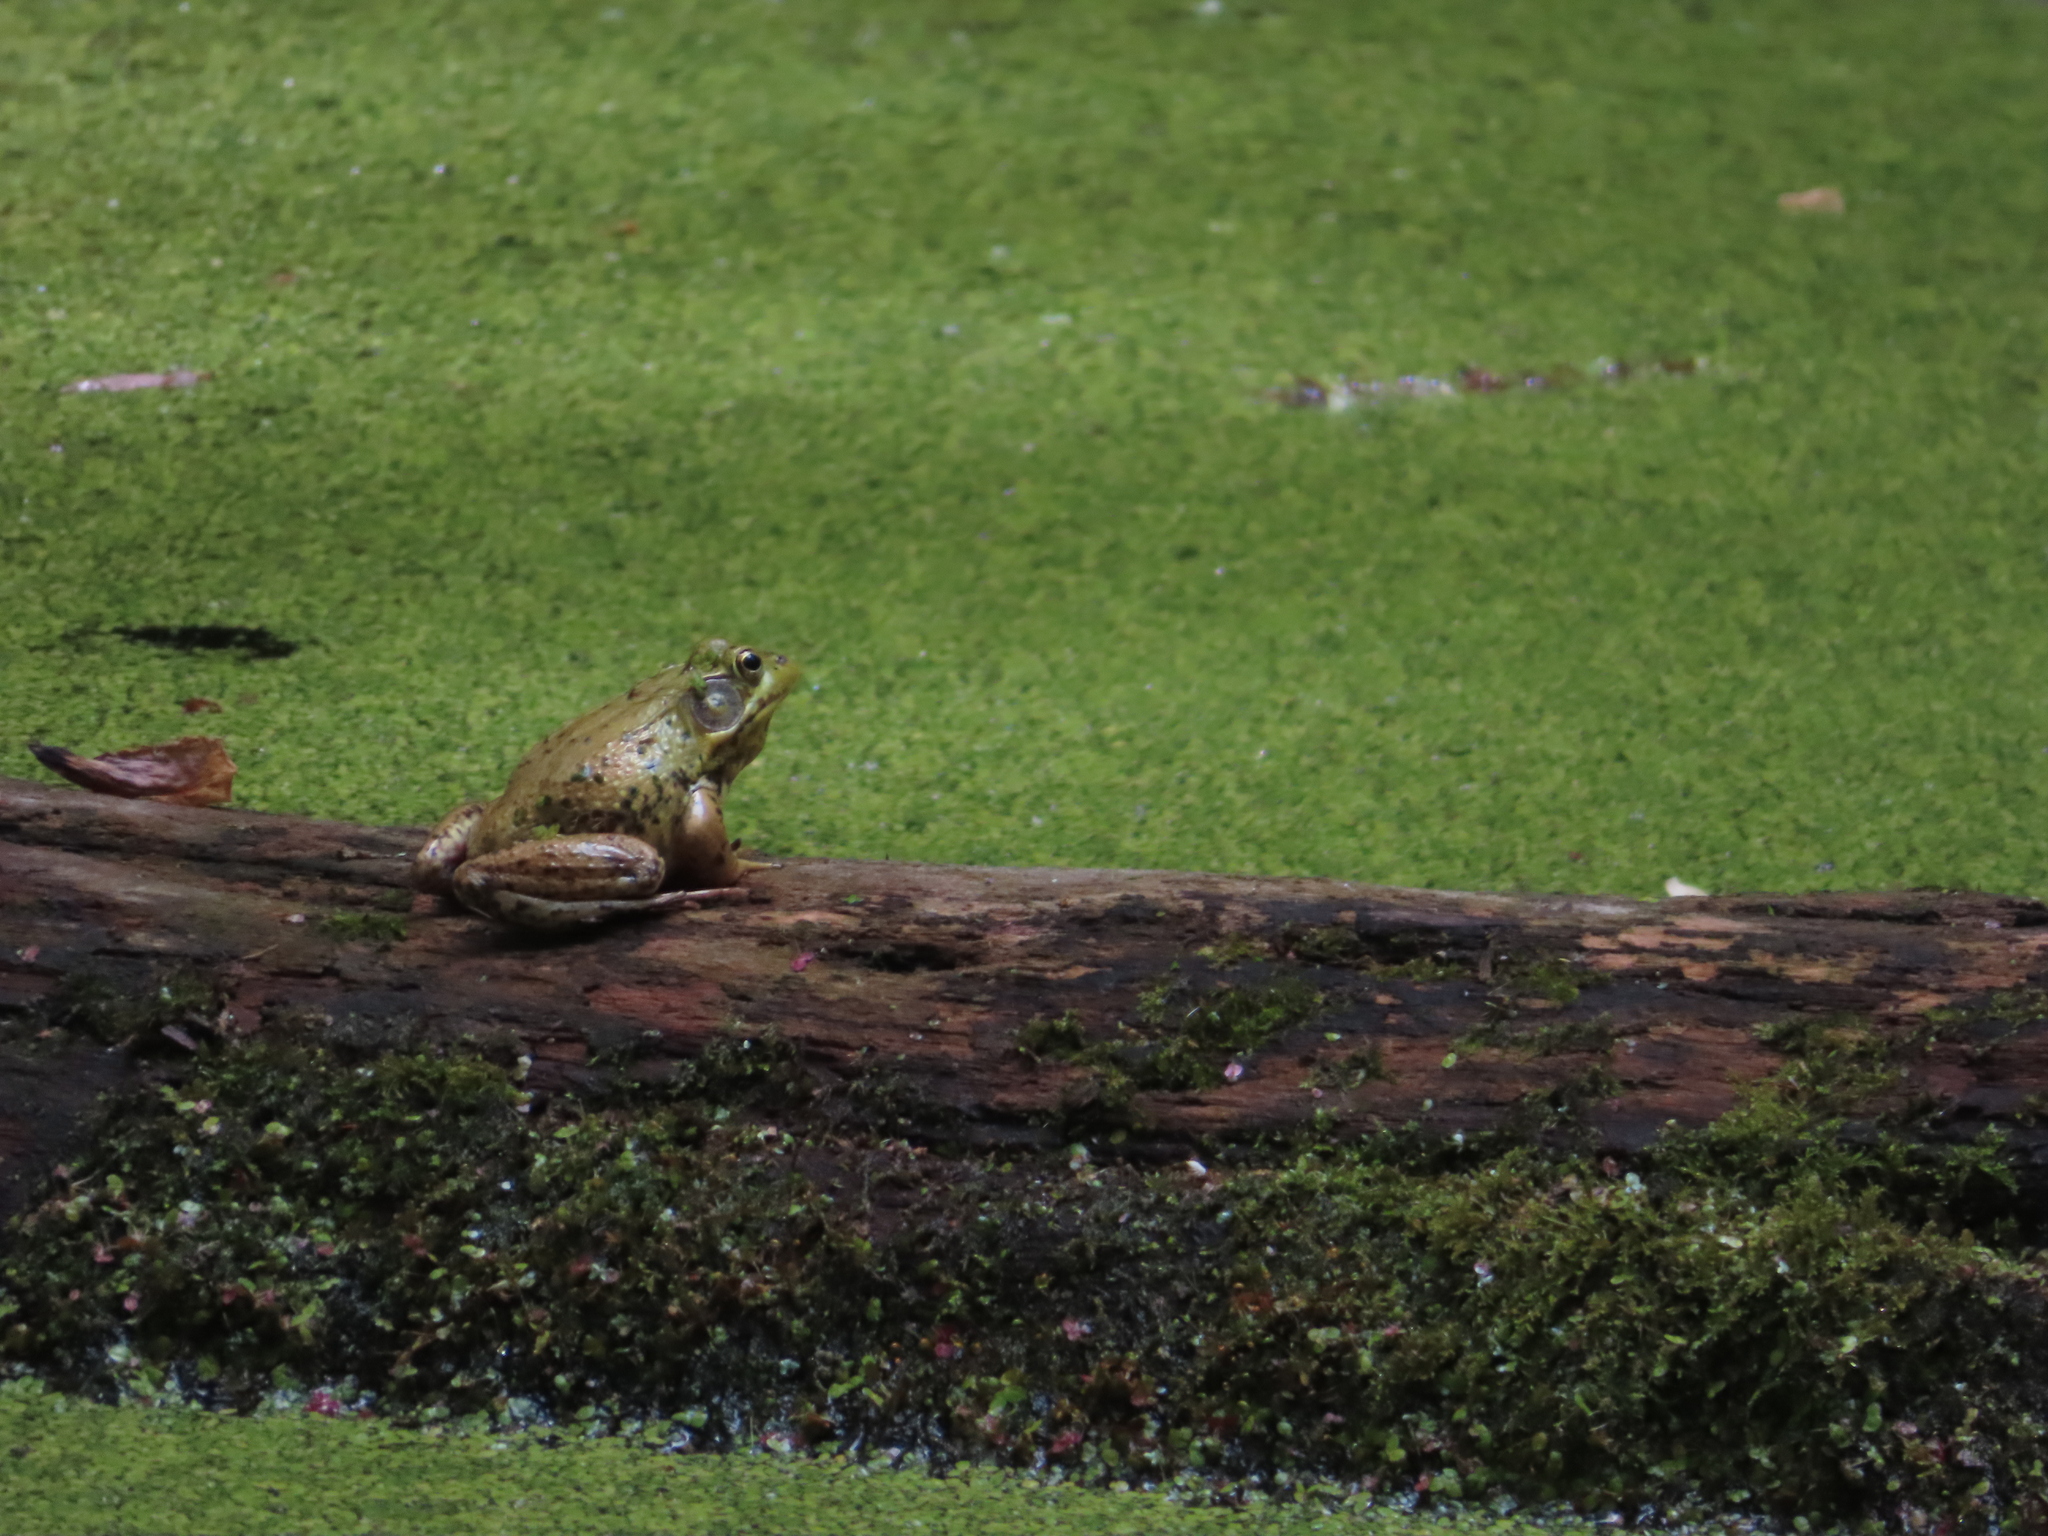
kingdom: Animalia
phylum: Chordata
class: Amphibia
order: Anura
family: Ranidae
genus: Lithobates
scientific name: Lithobates clamitans
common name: Green frog
